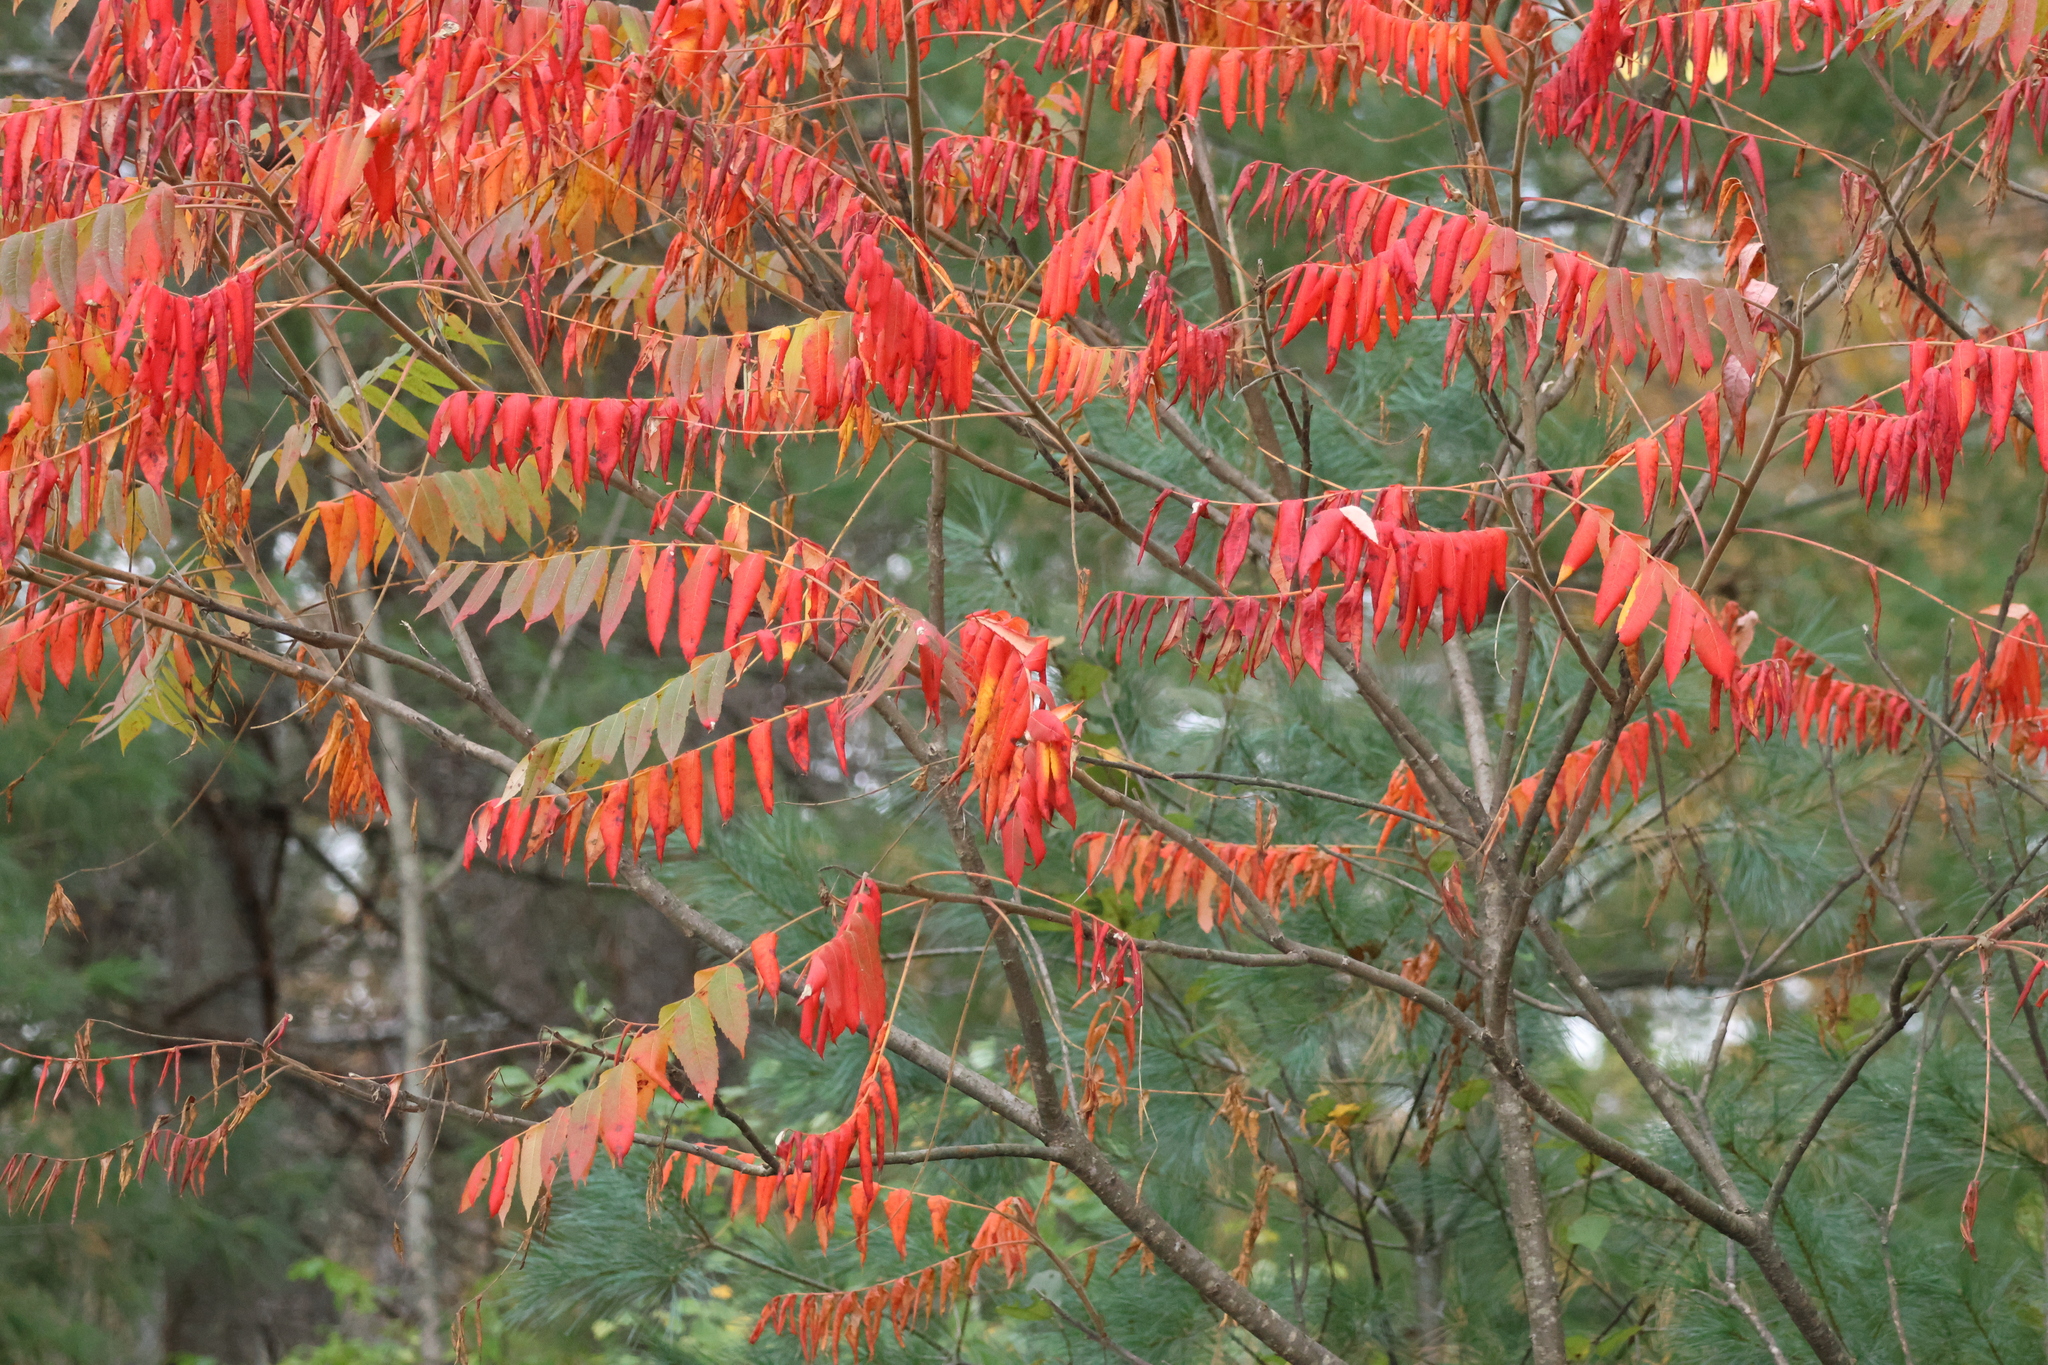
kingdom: Plantae
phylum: Tracheophyta
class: Magnoliopsida
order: Sapindales
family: Anacardiaceae
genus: Rhus
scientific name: Rhus typhina
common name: Staghorn sumac
